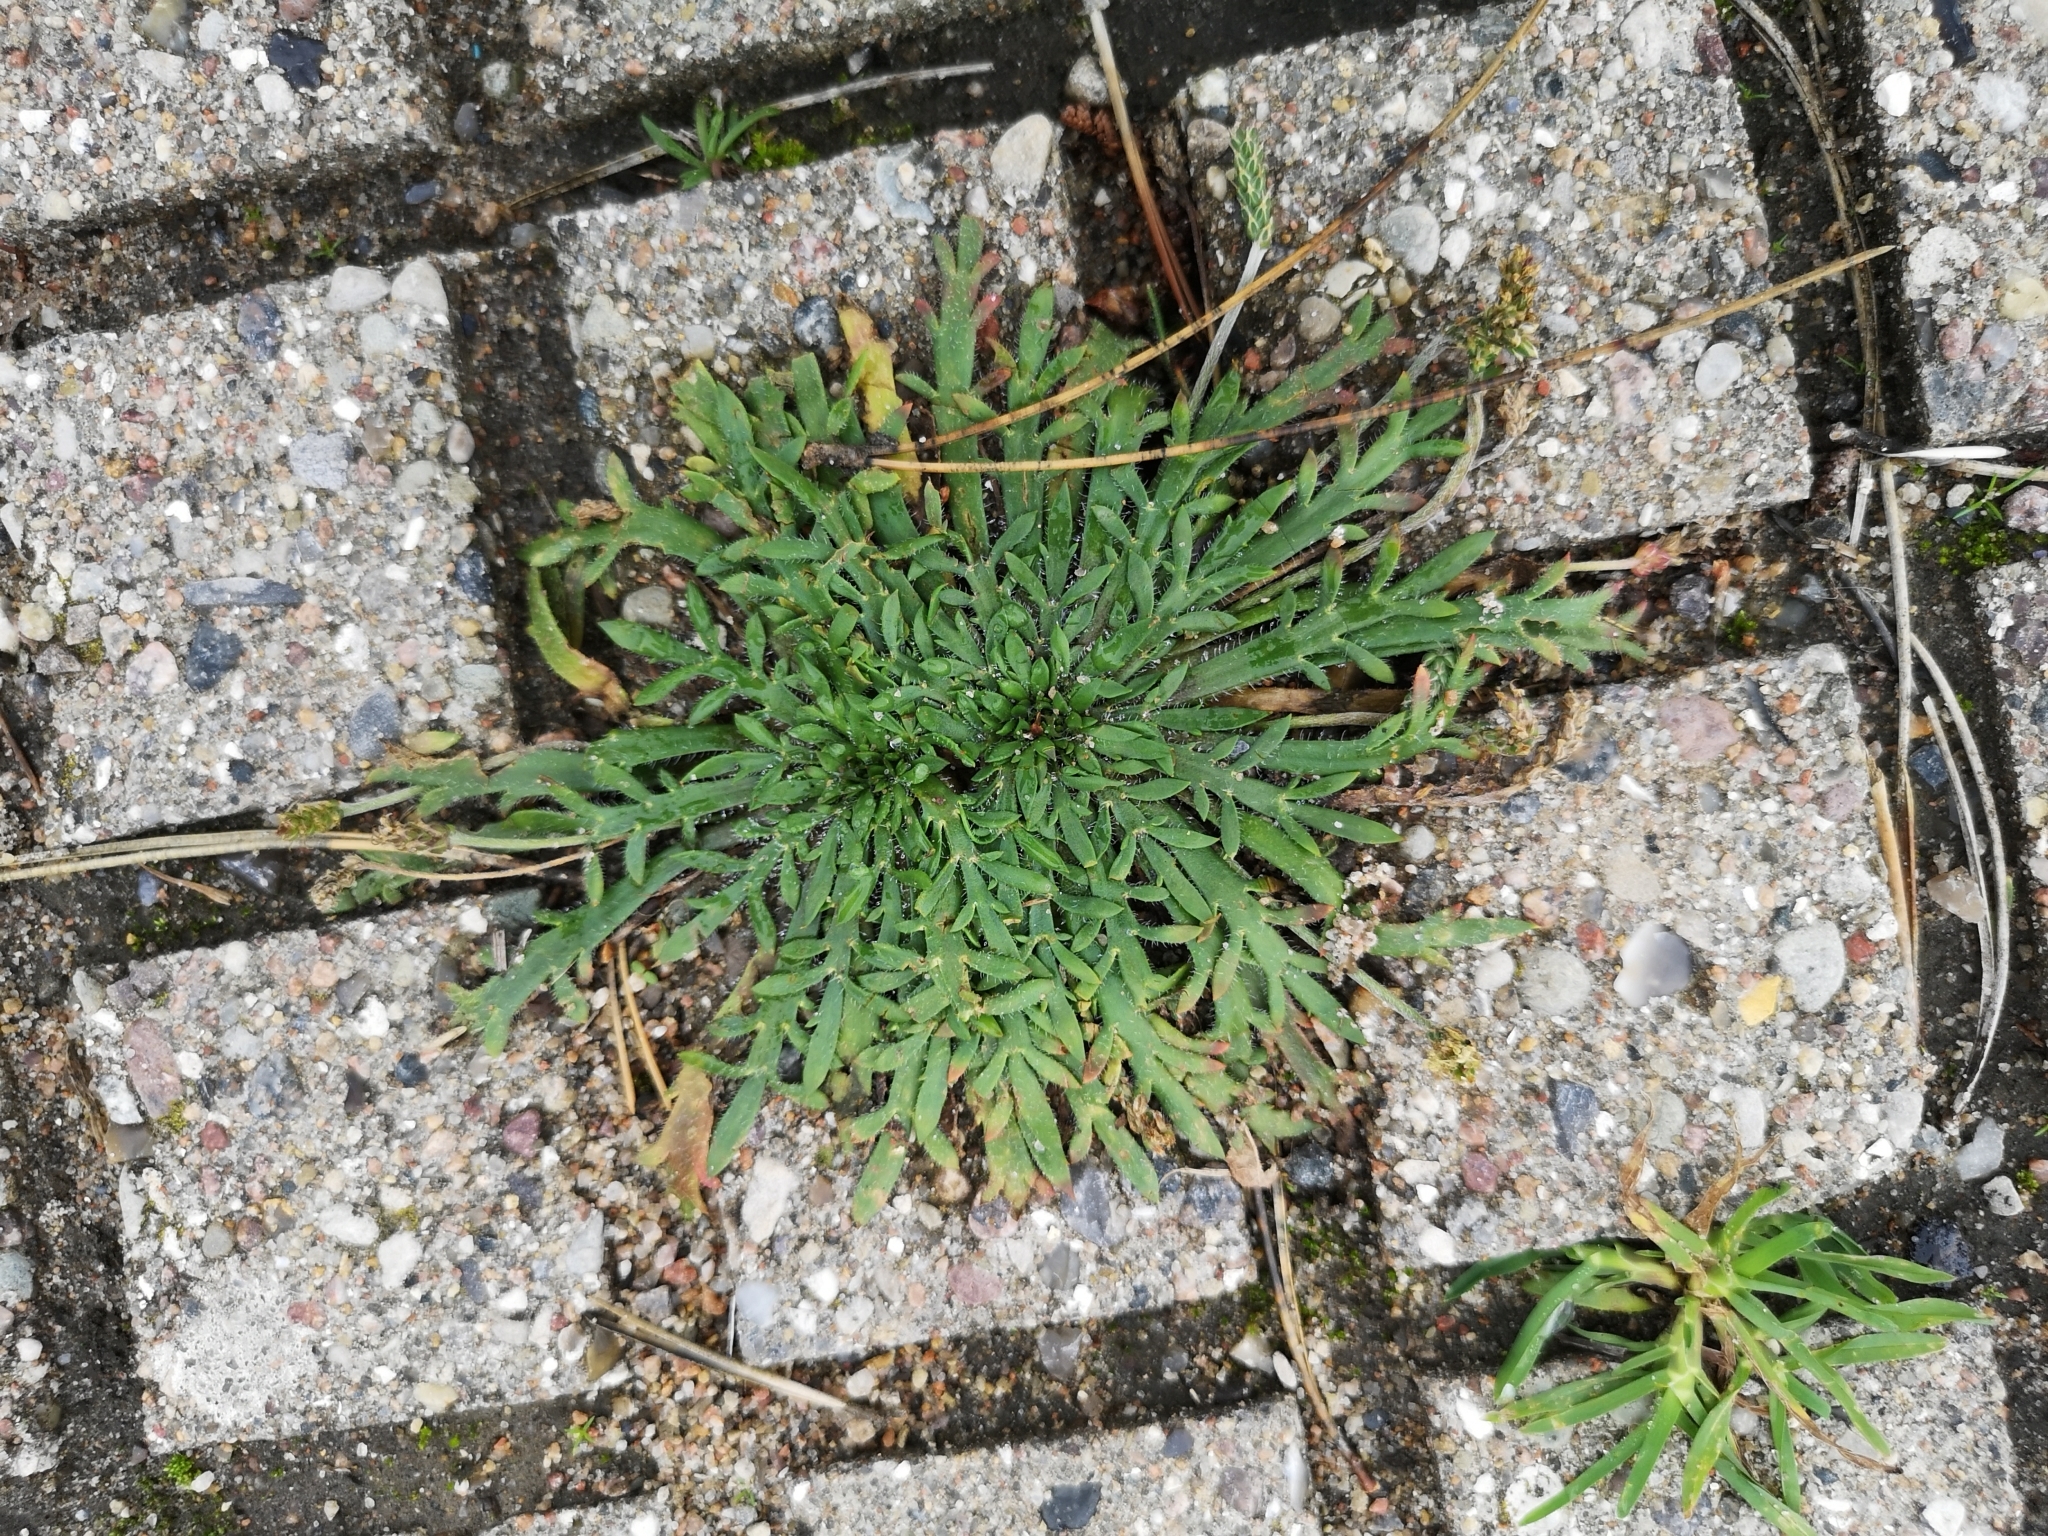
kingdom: Plantae
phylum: Tracheophyta
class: Magnoliopsida
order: Lamiales
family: Plantaginaceae
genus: Plantago
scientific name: Plantago coronopus
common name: Buck's-horn plantain
